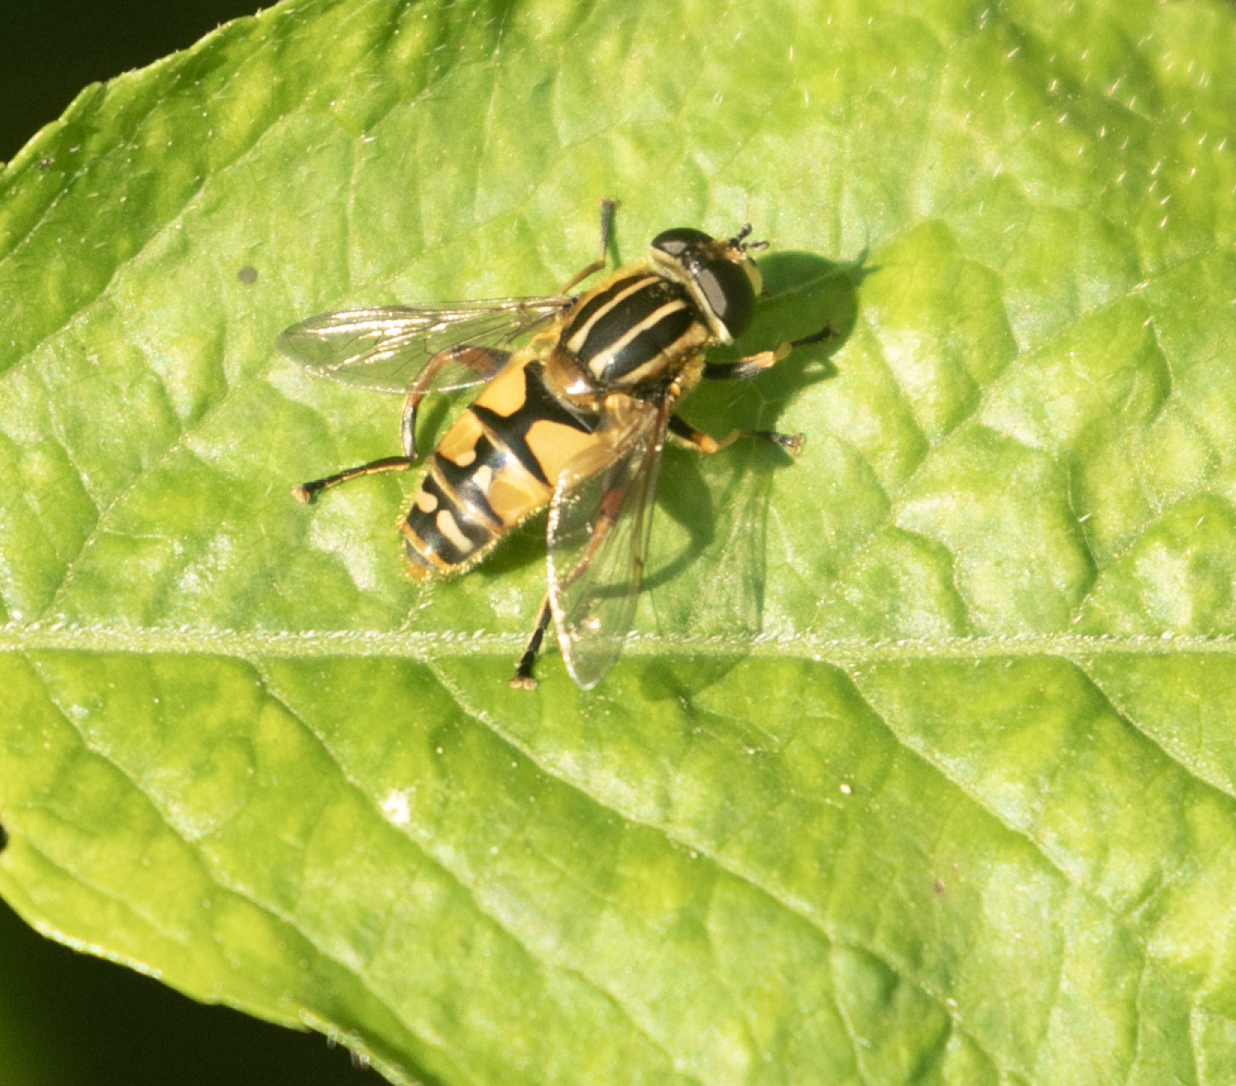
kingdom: Animalia
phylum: Arthropoda
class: Insecta
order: Diptera
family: Syrphidae
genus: Helophilus
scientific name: Helophilus pendulus
